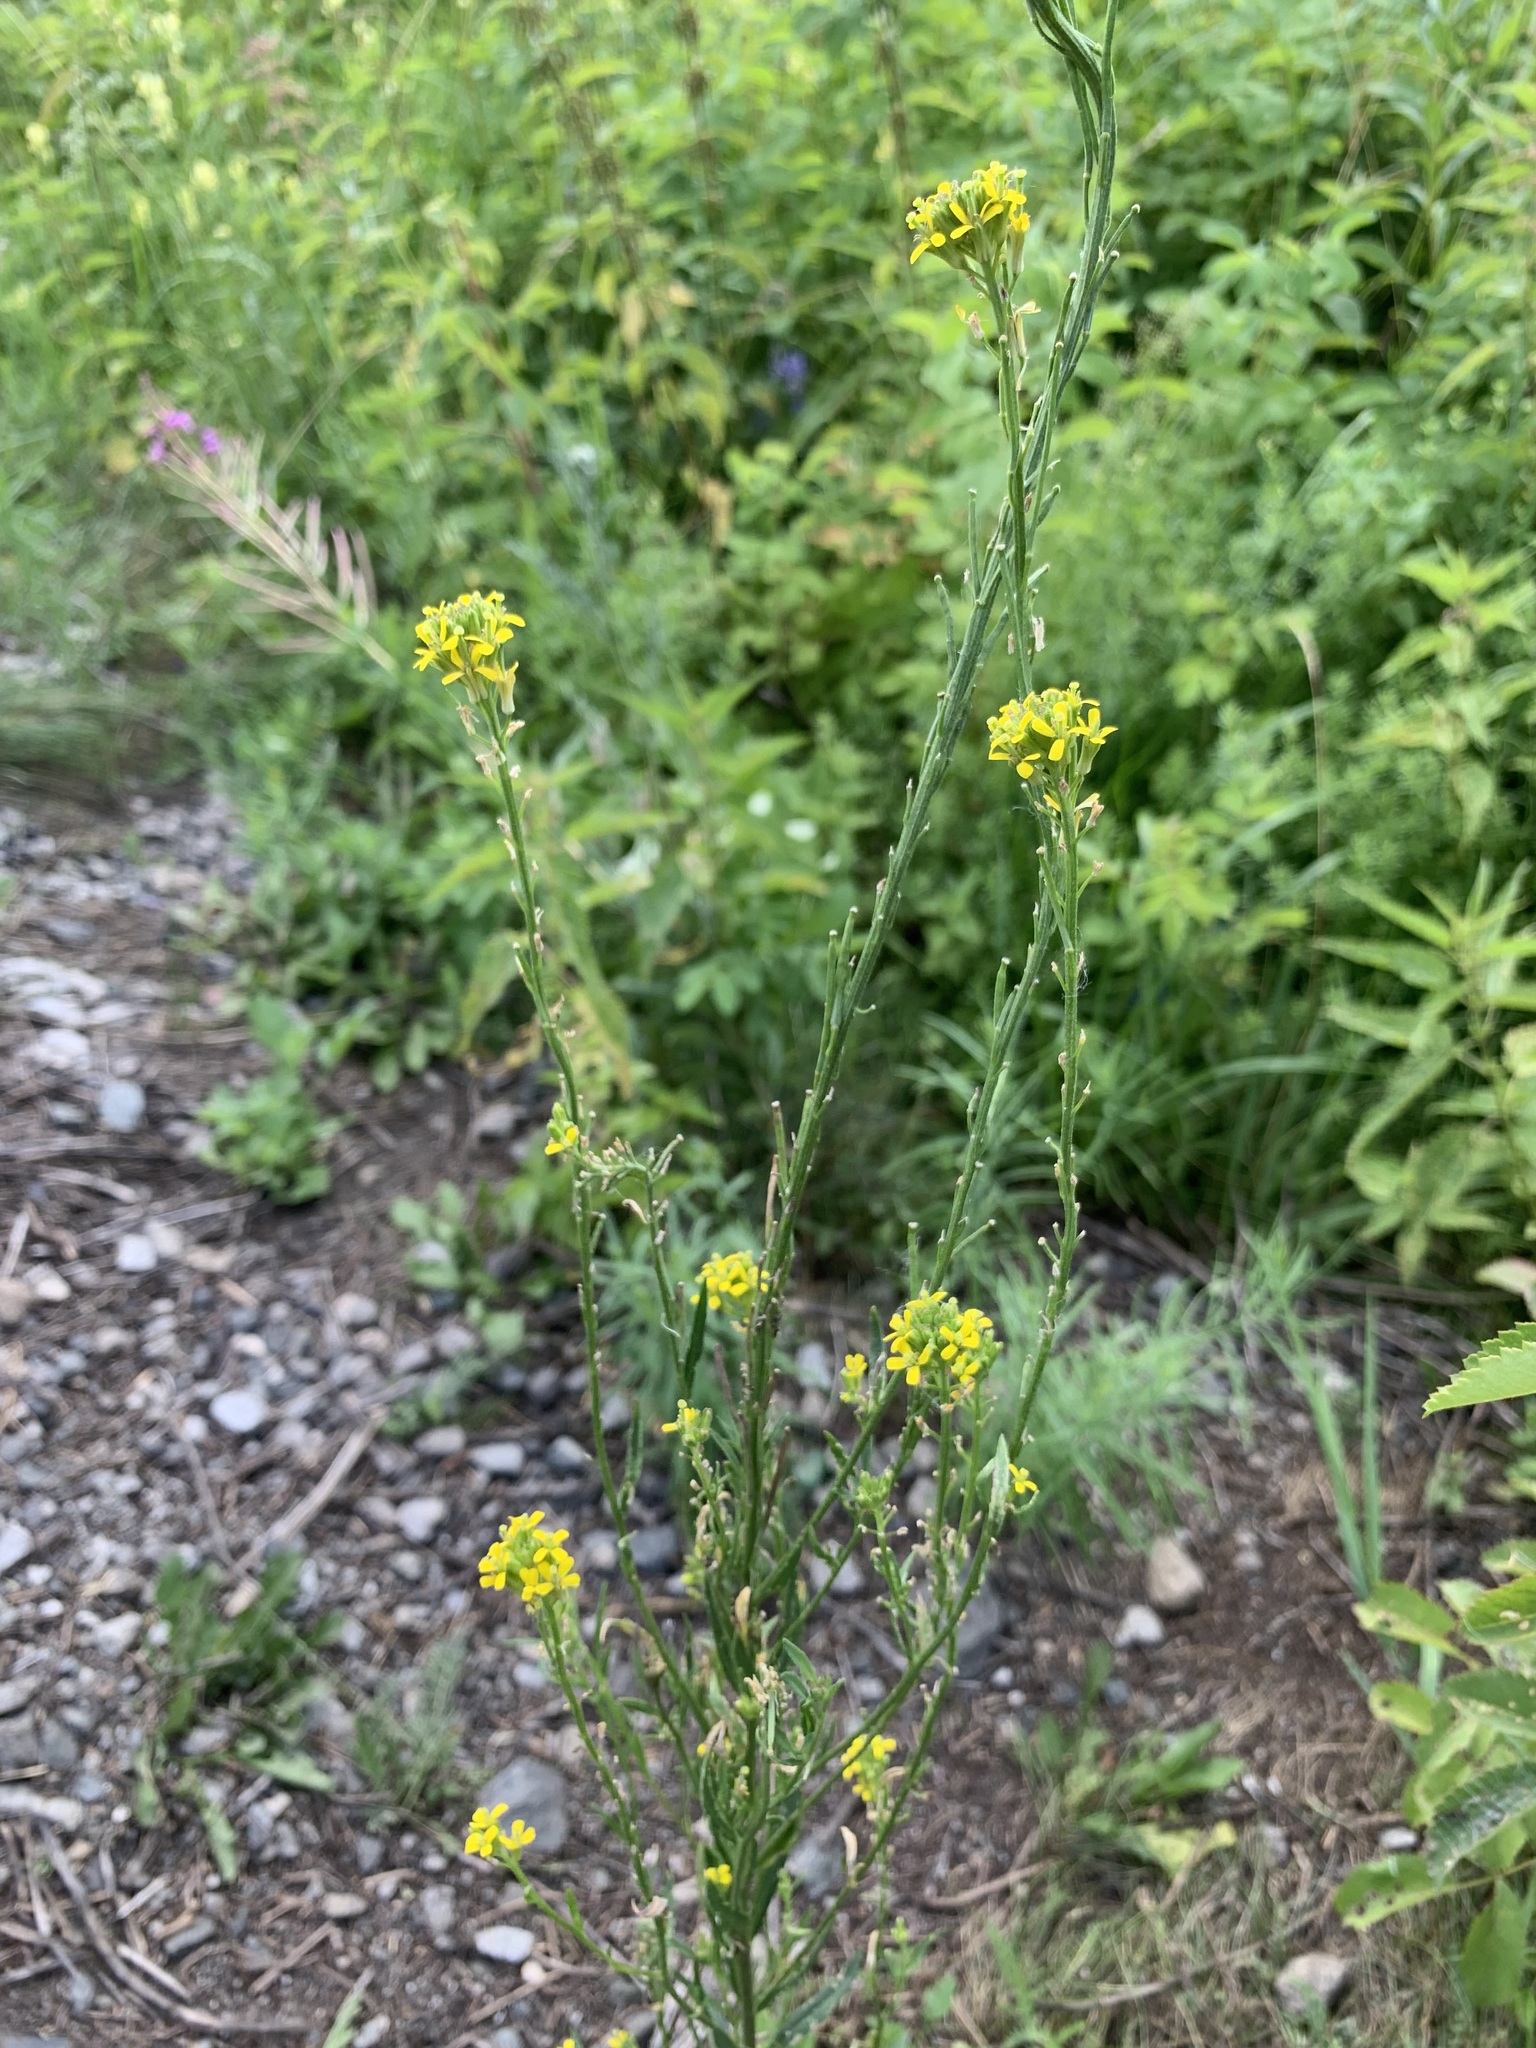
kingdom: Plantae
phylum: Tracheophyta
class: Magnoliopsida
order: Brassicales
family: Brassicaceae
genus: Erysimum
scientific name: Erysimum hieraciifolium
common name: European wallflower
